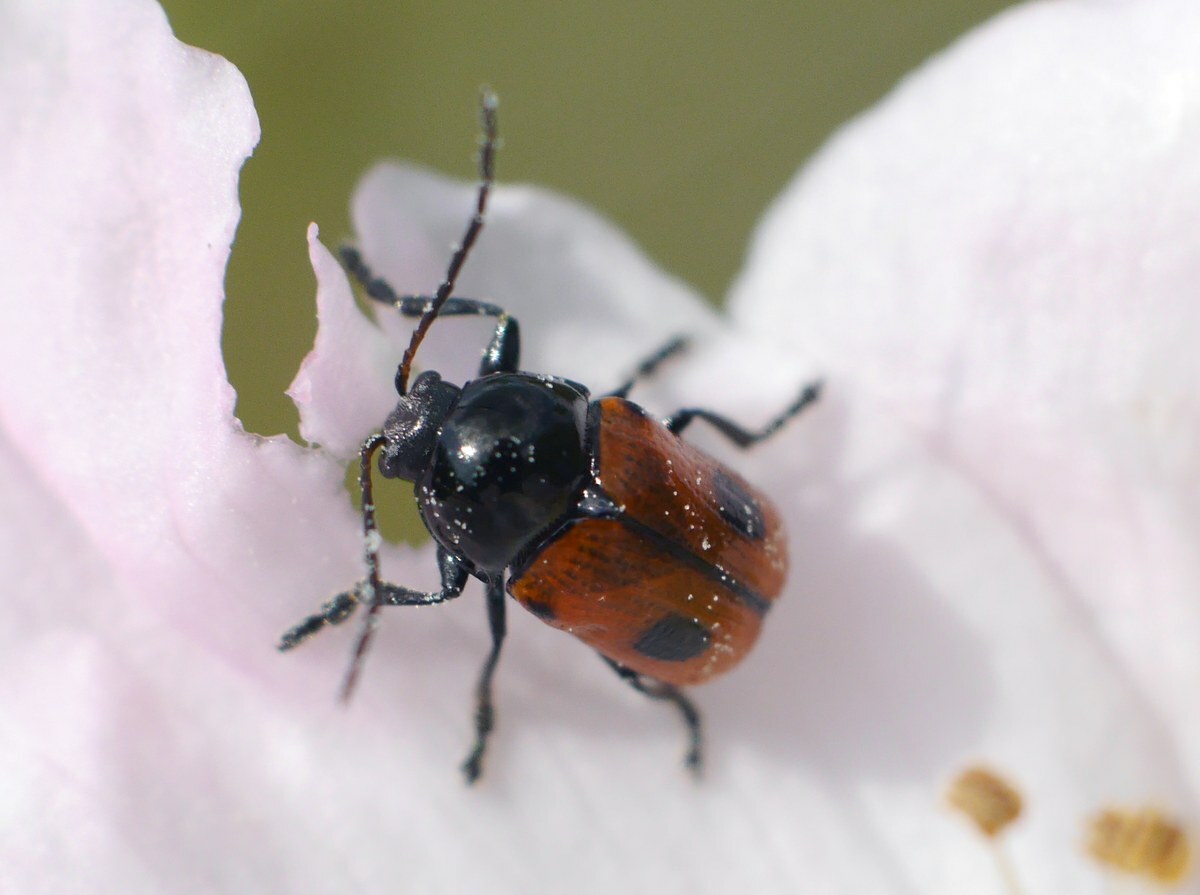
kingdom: Animalia
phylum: Arthropoda
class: Insecta
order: Coleoptera
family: Chrysomelidae
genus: Chiridopsis
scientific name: Chiridopsis bipunctata
